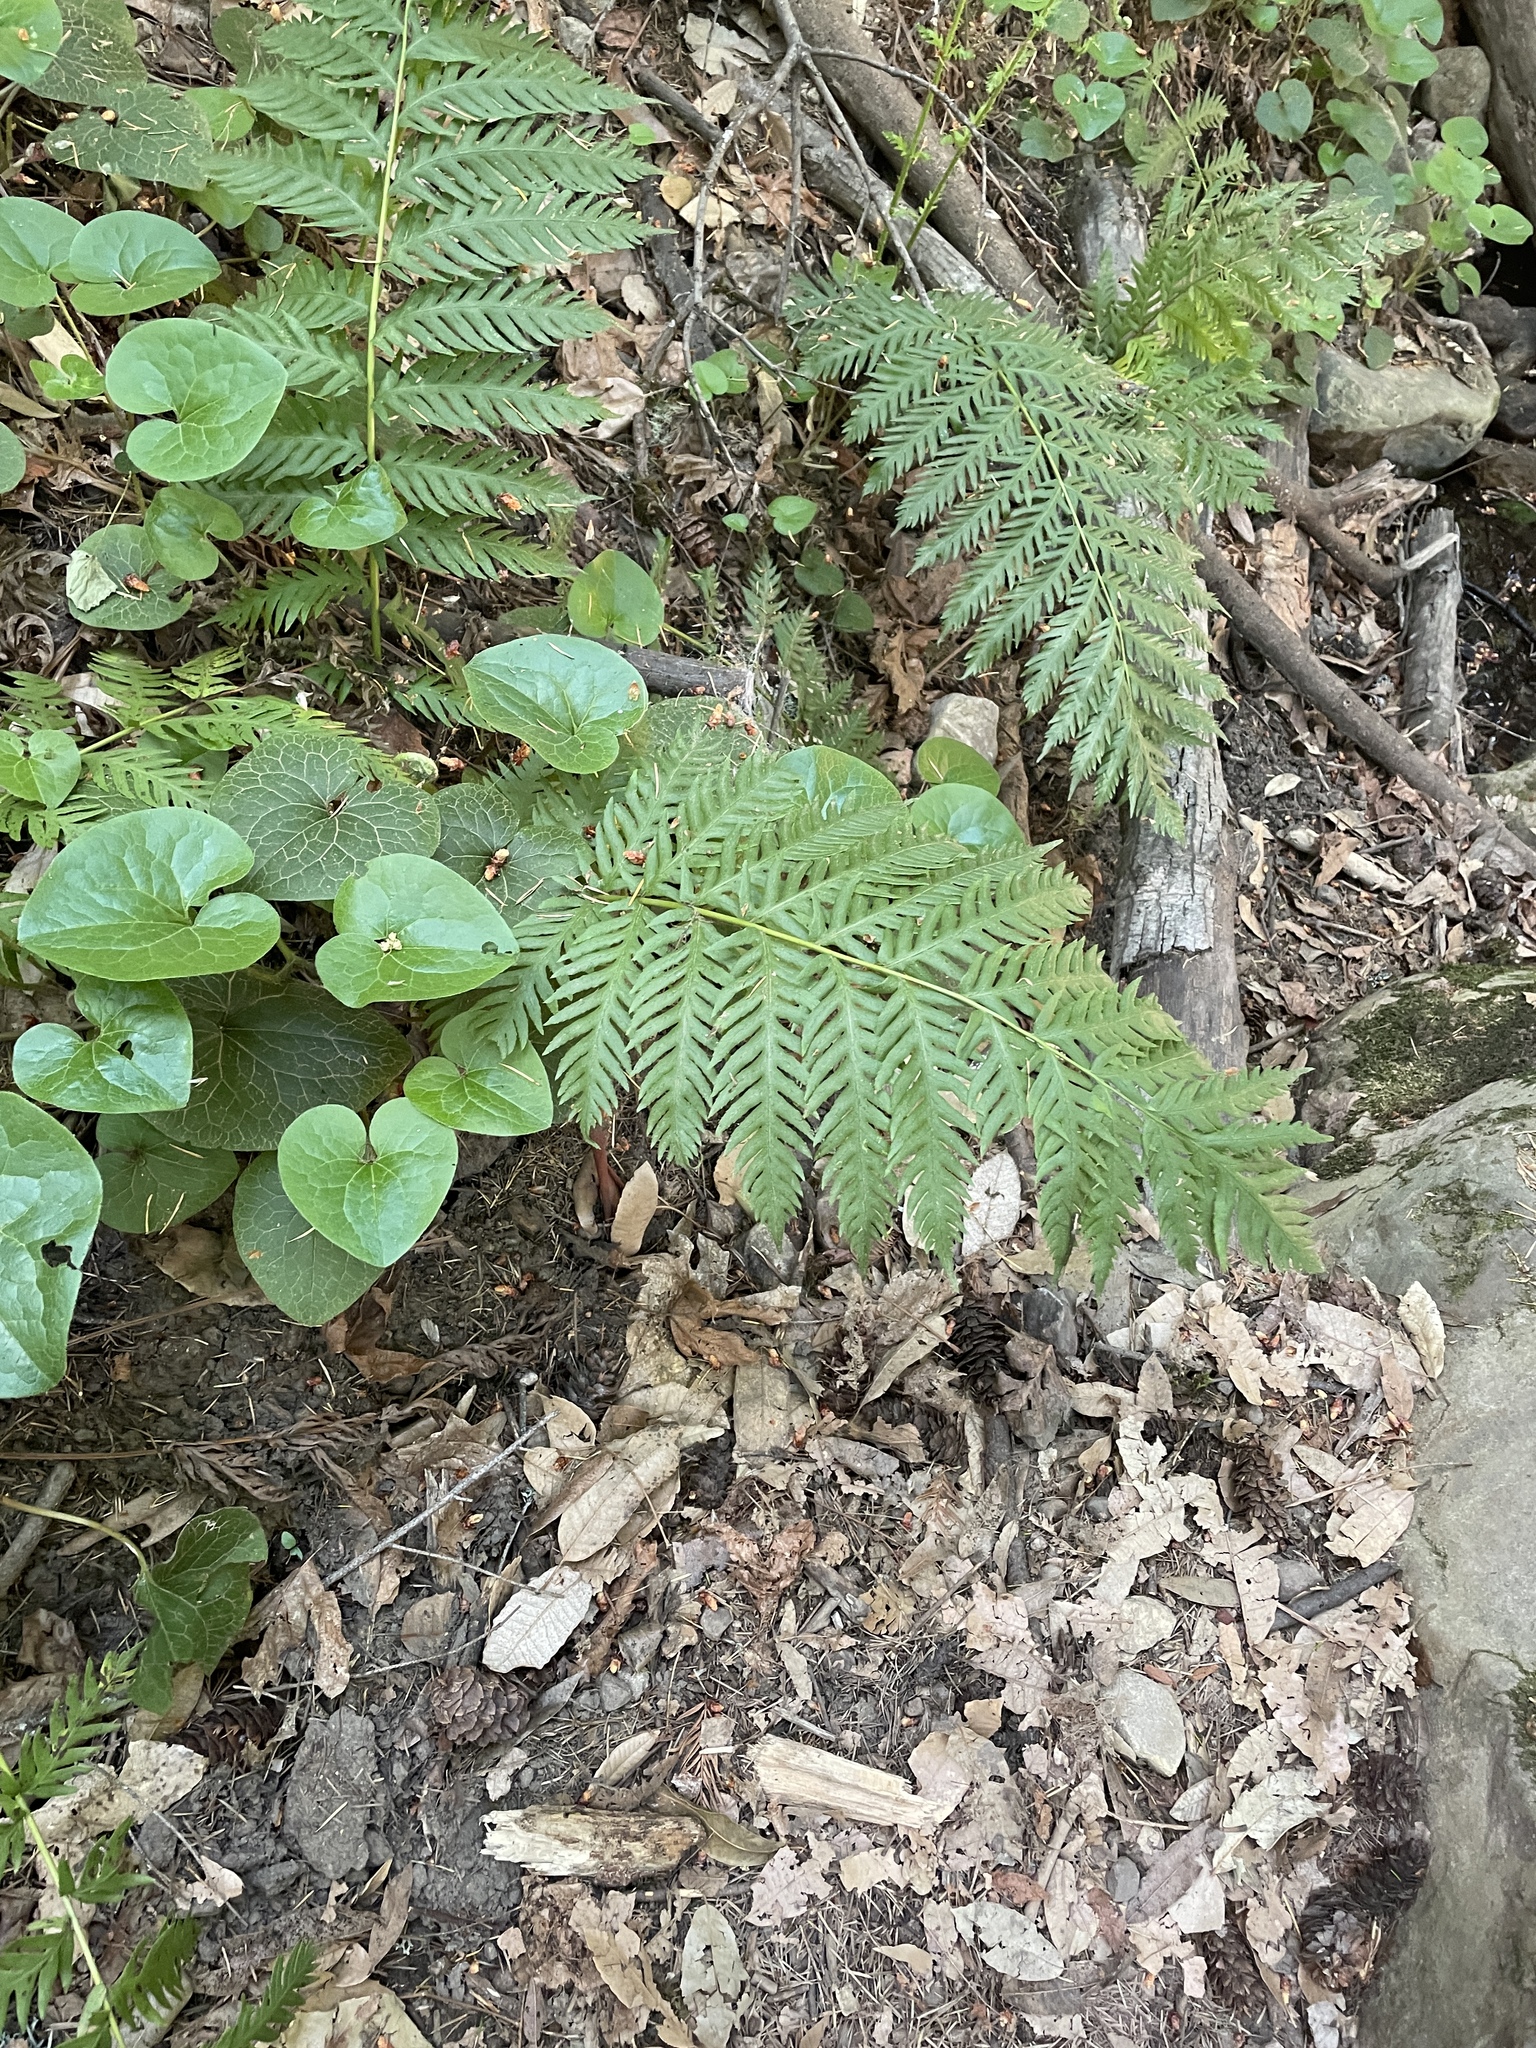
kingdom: Plantae
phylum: Tracheophyta
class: Polypodiopsida
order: Polypodiales
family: Blechnaceae
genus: Woodwardia
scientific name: Woodwardia fimbriata
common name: Giant chain fern
